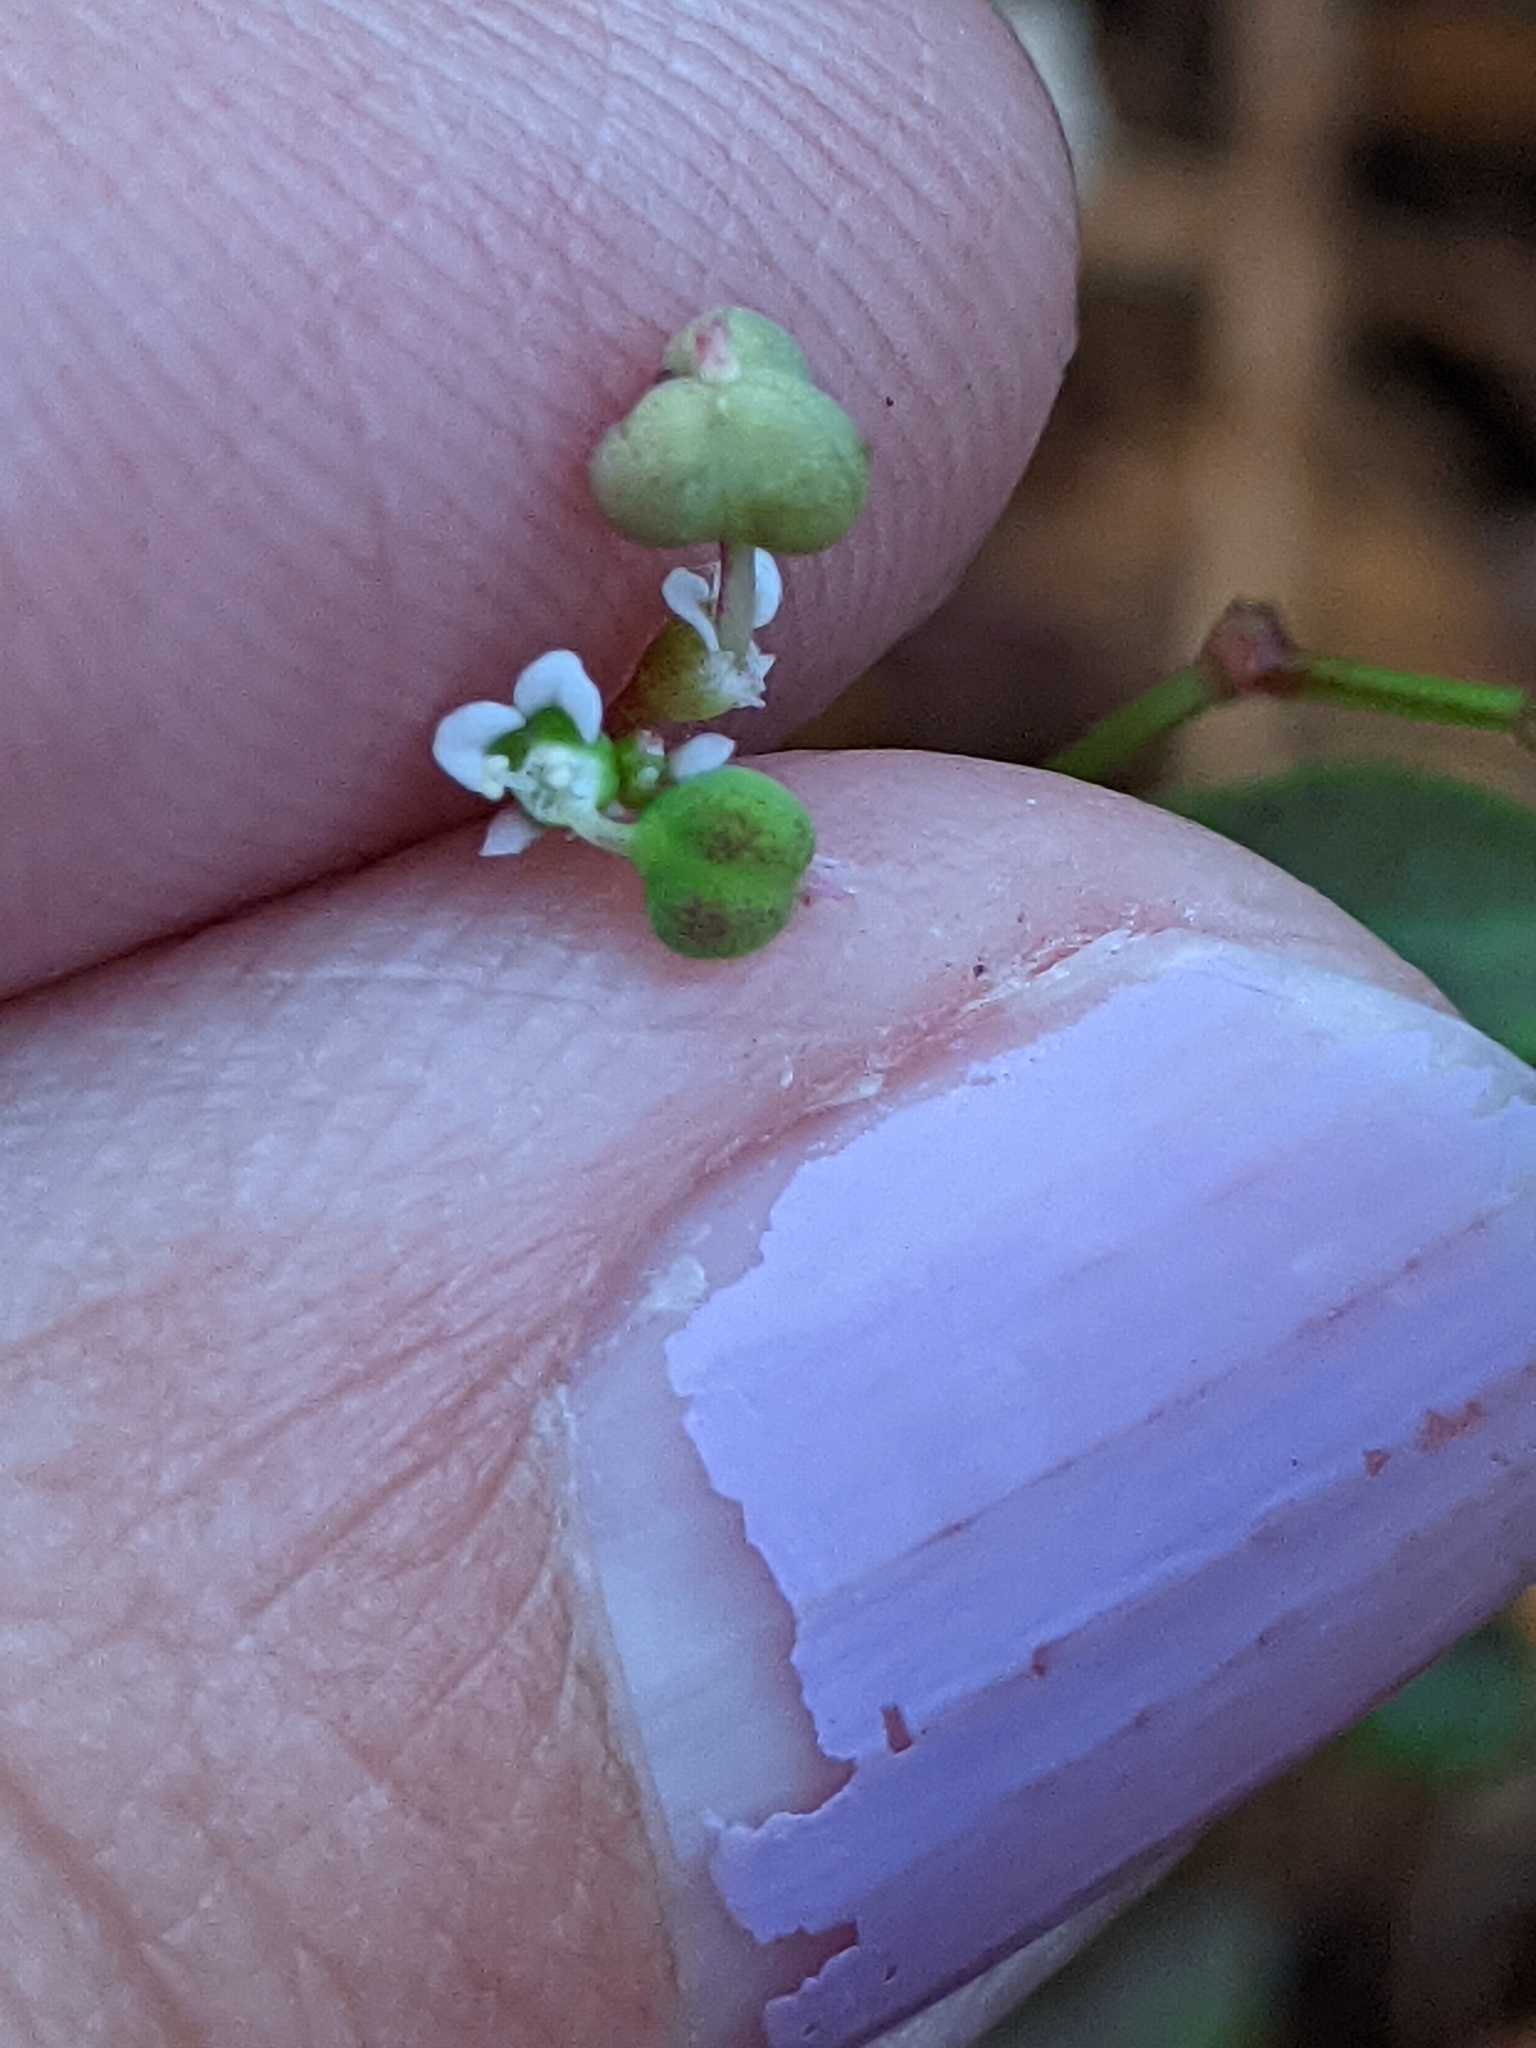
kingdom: Plantae
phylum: Tracheophyta
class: Magnoliopsida
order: Malpighiales
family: Euphorbiaceae
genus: Euphorbia
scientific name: Euphorbia graminea
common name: Grassleaf spurge
